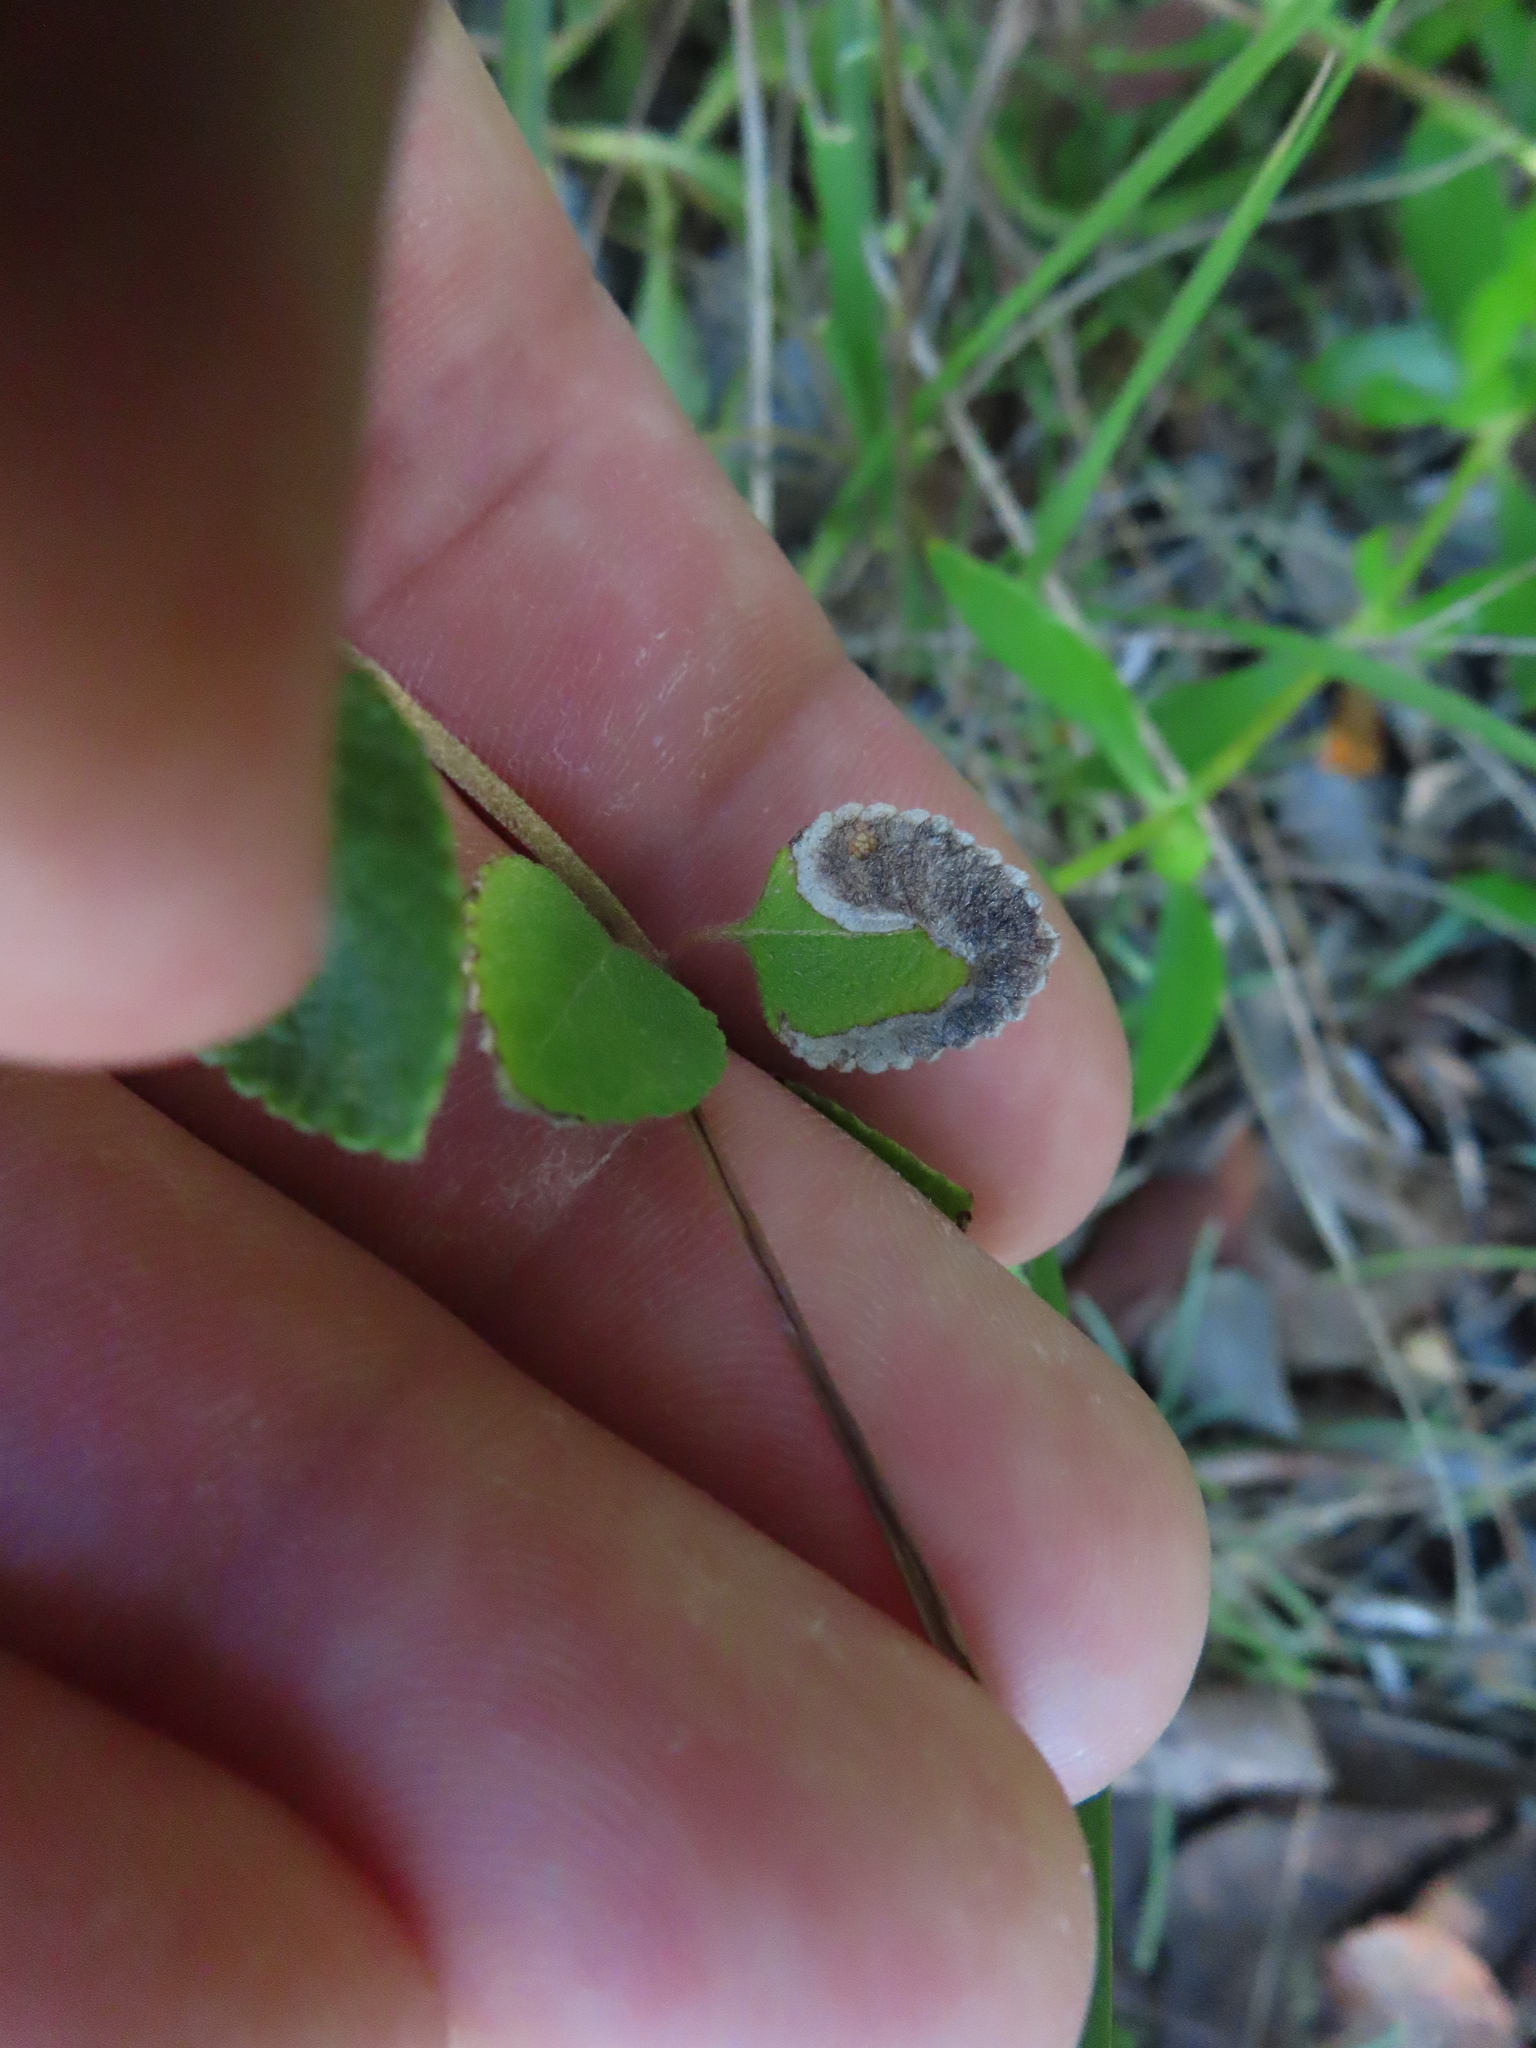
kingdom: Animalia
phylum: Arthropoda
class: Insecta
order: Diptera
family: Agromyzidae
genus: Calycomyza
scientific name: Calycomyza lantanae
